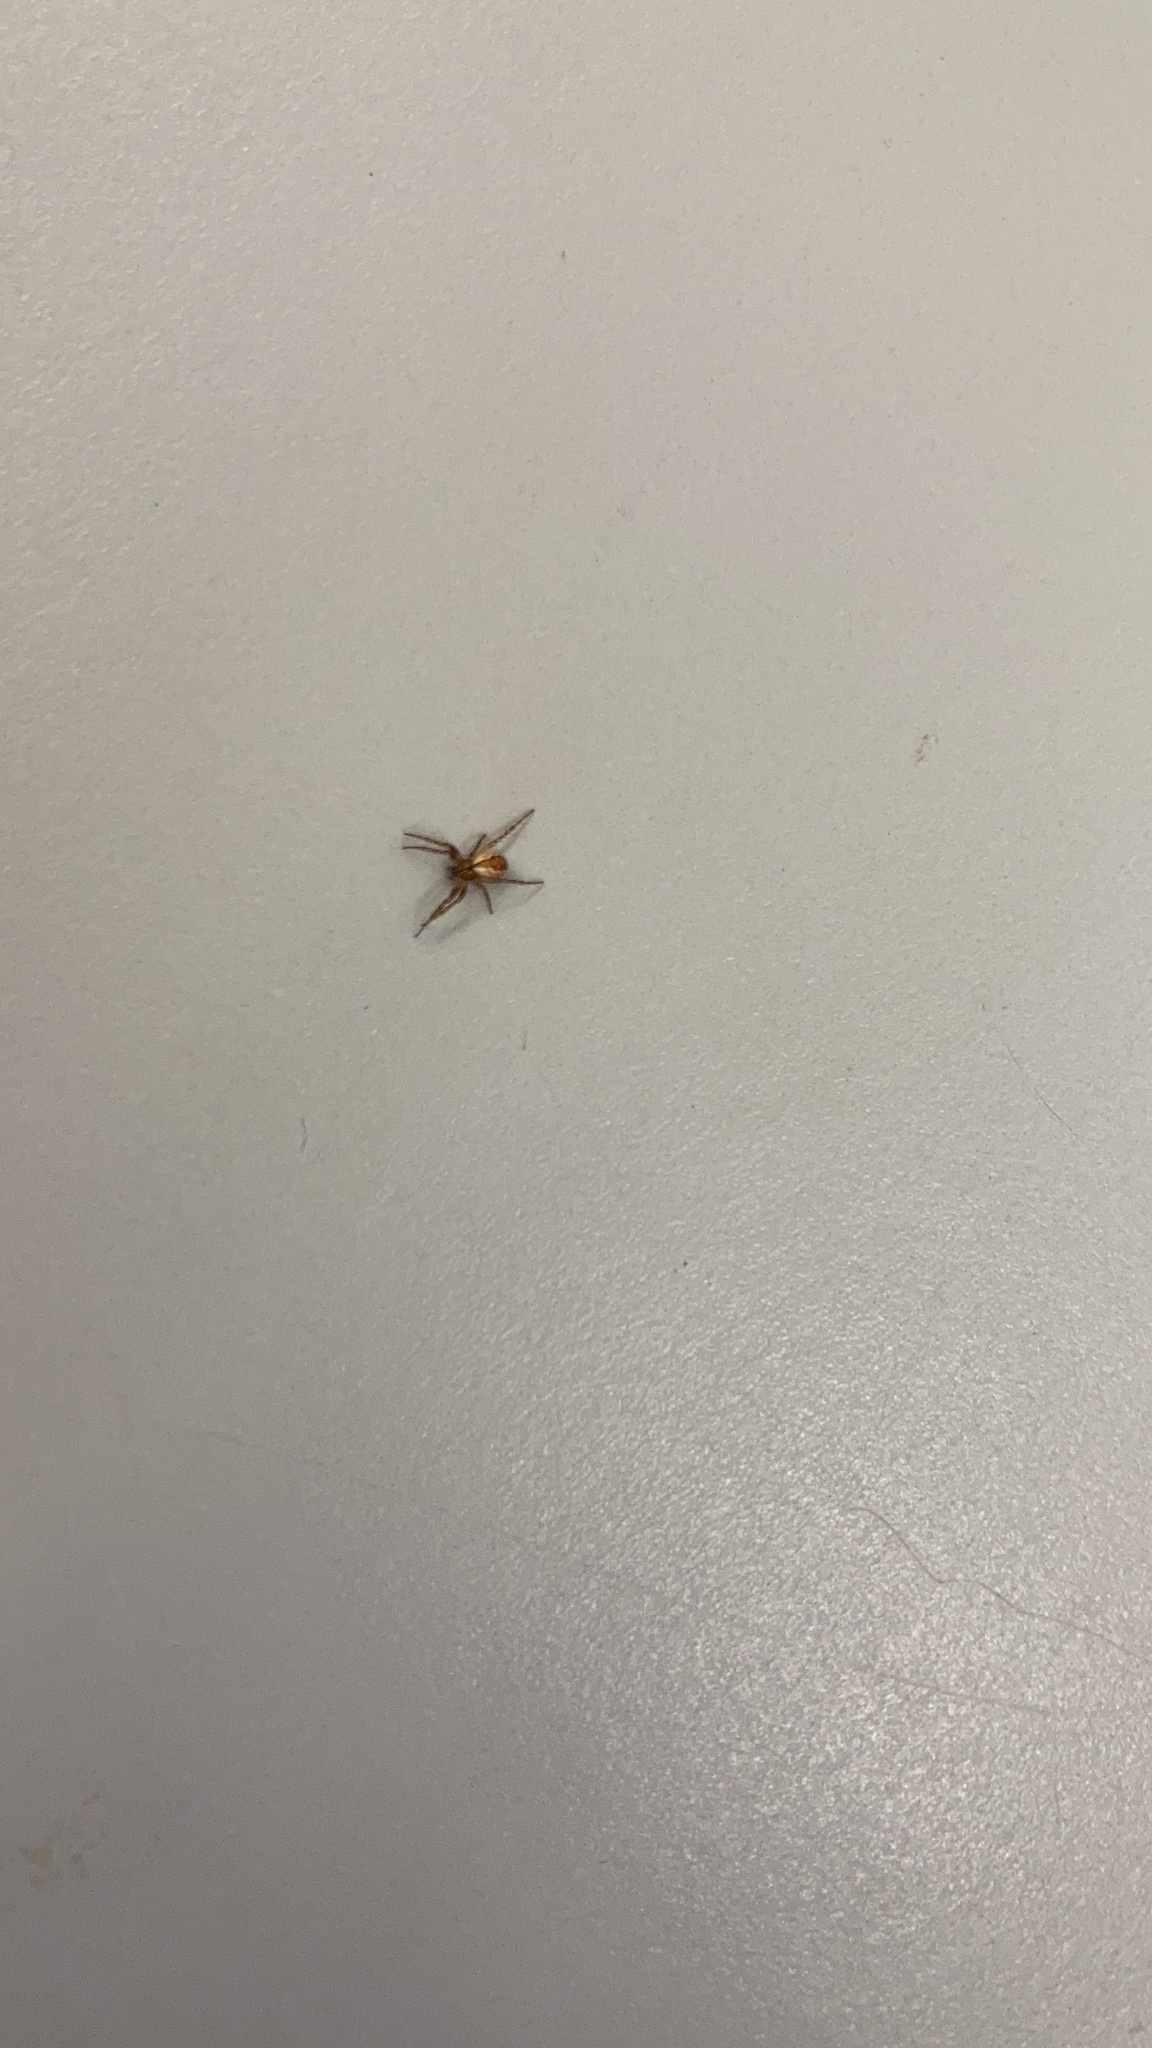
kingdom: Animalia
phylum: Arthropoda
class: Arachnida
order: Araneae
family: Araneidae
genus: Mangora
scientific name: Mangora placida
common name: Tuft-legged orbweaver
